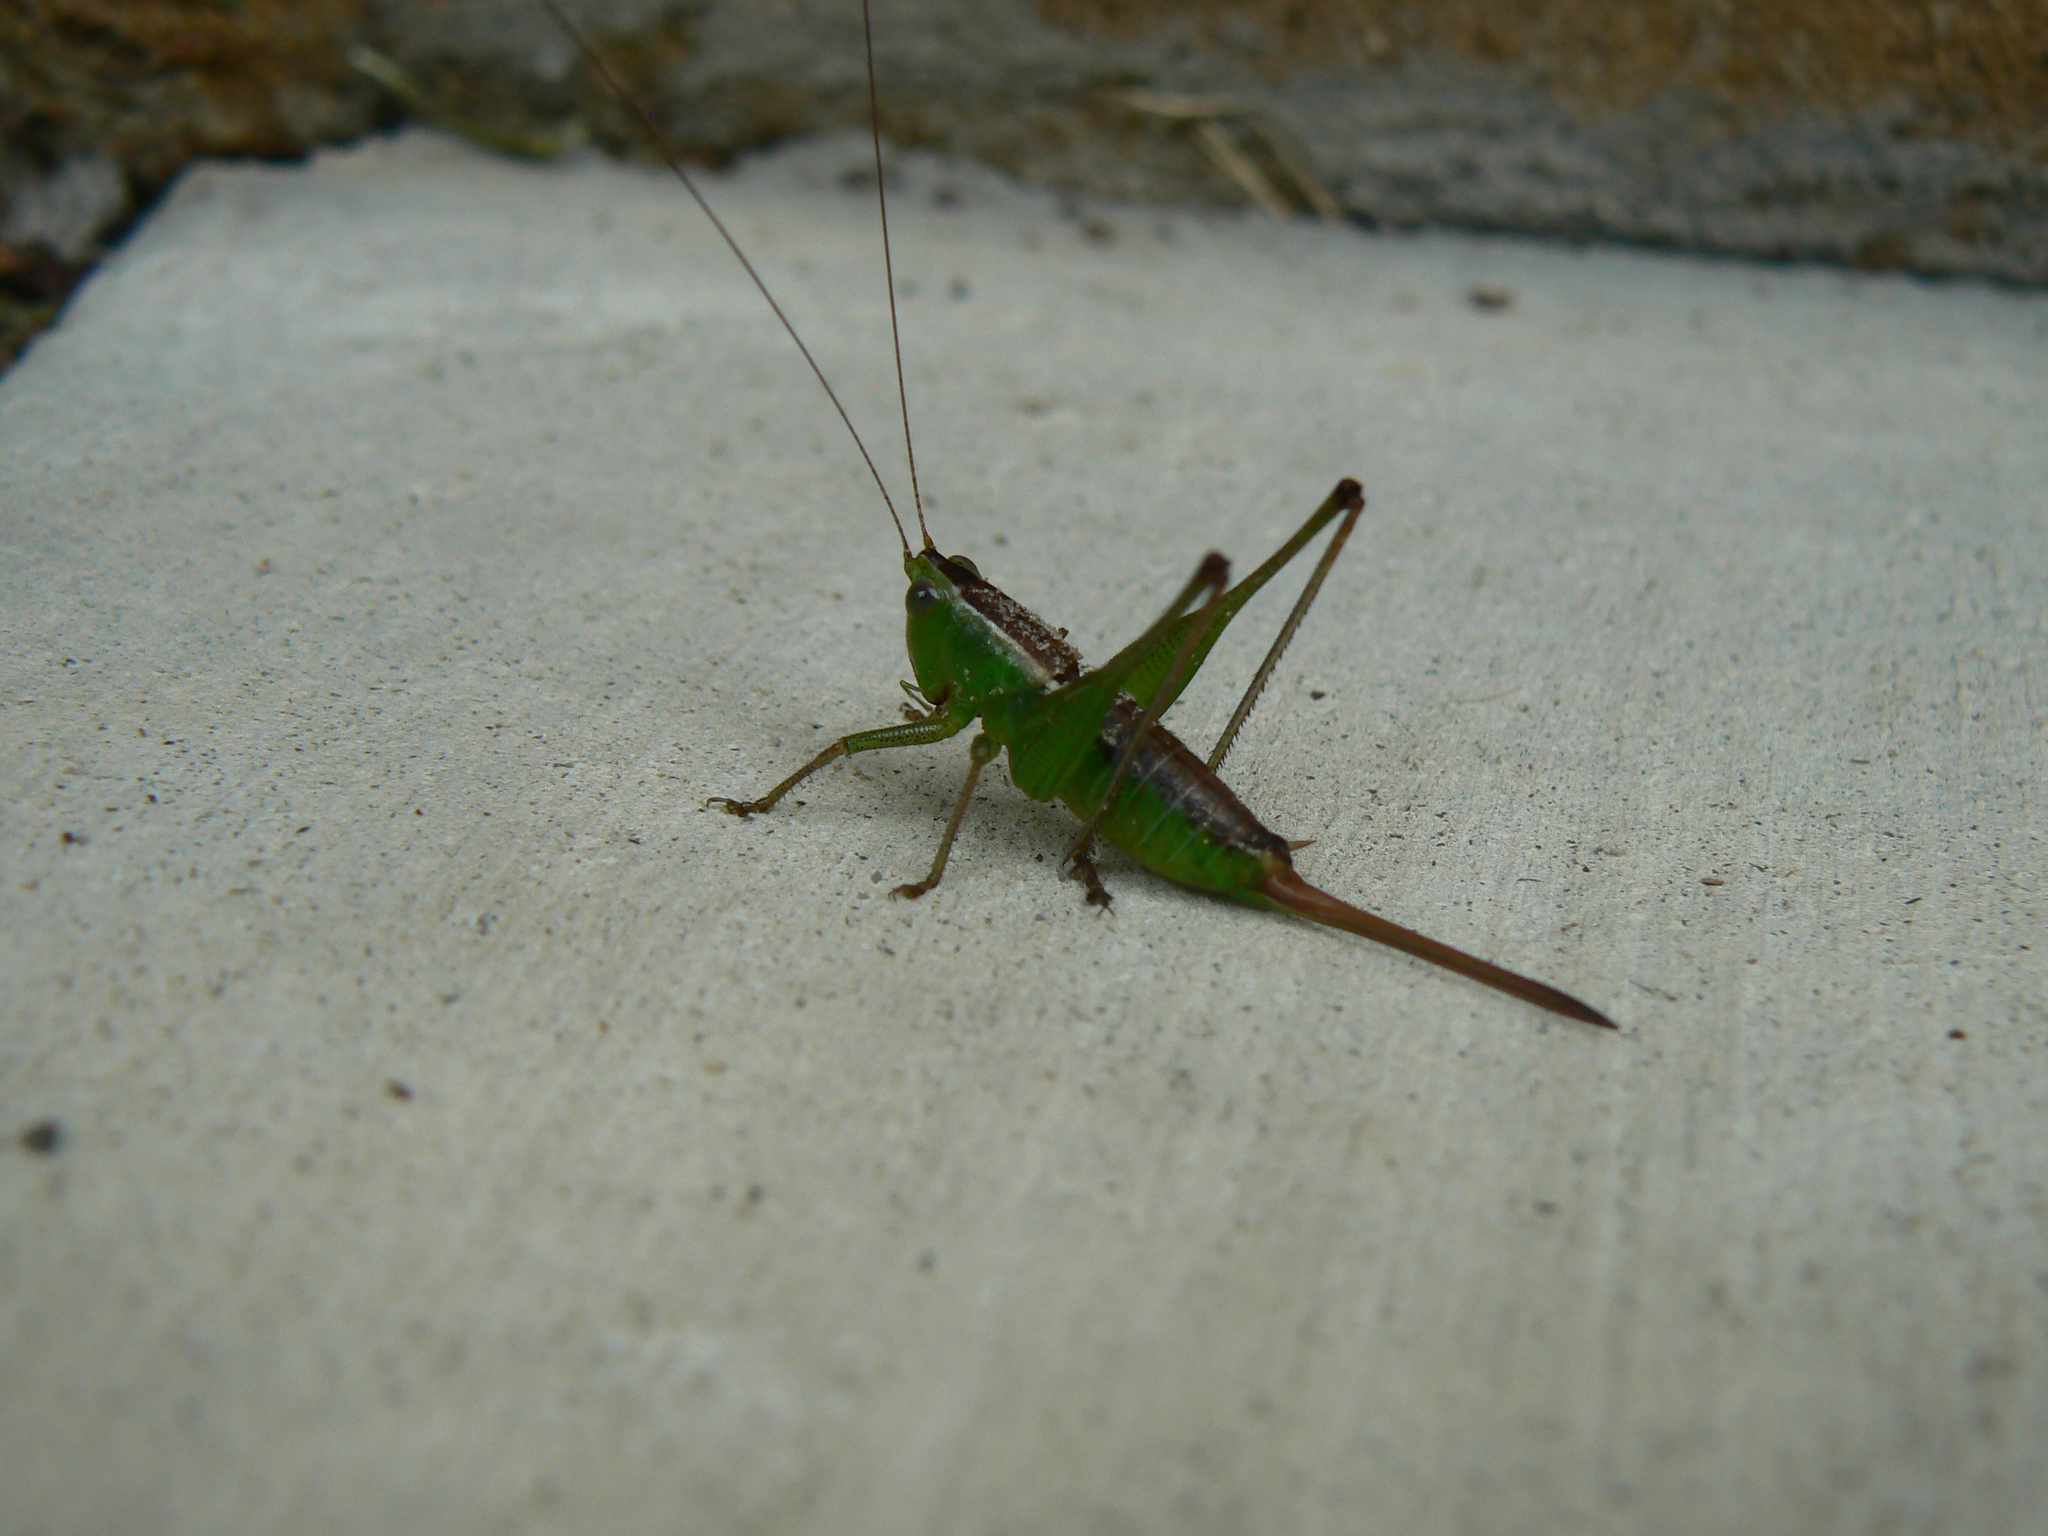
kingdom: Animalia
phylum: Arthropoda
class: Insecta
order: Orthoptera
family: Tettigoniidae
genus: Odontoxiphidium
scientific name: Odontoxiphidium apterum
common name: Wingless meadow katydid
